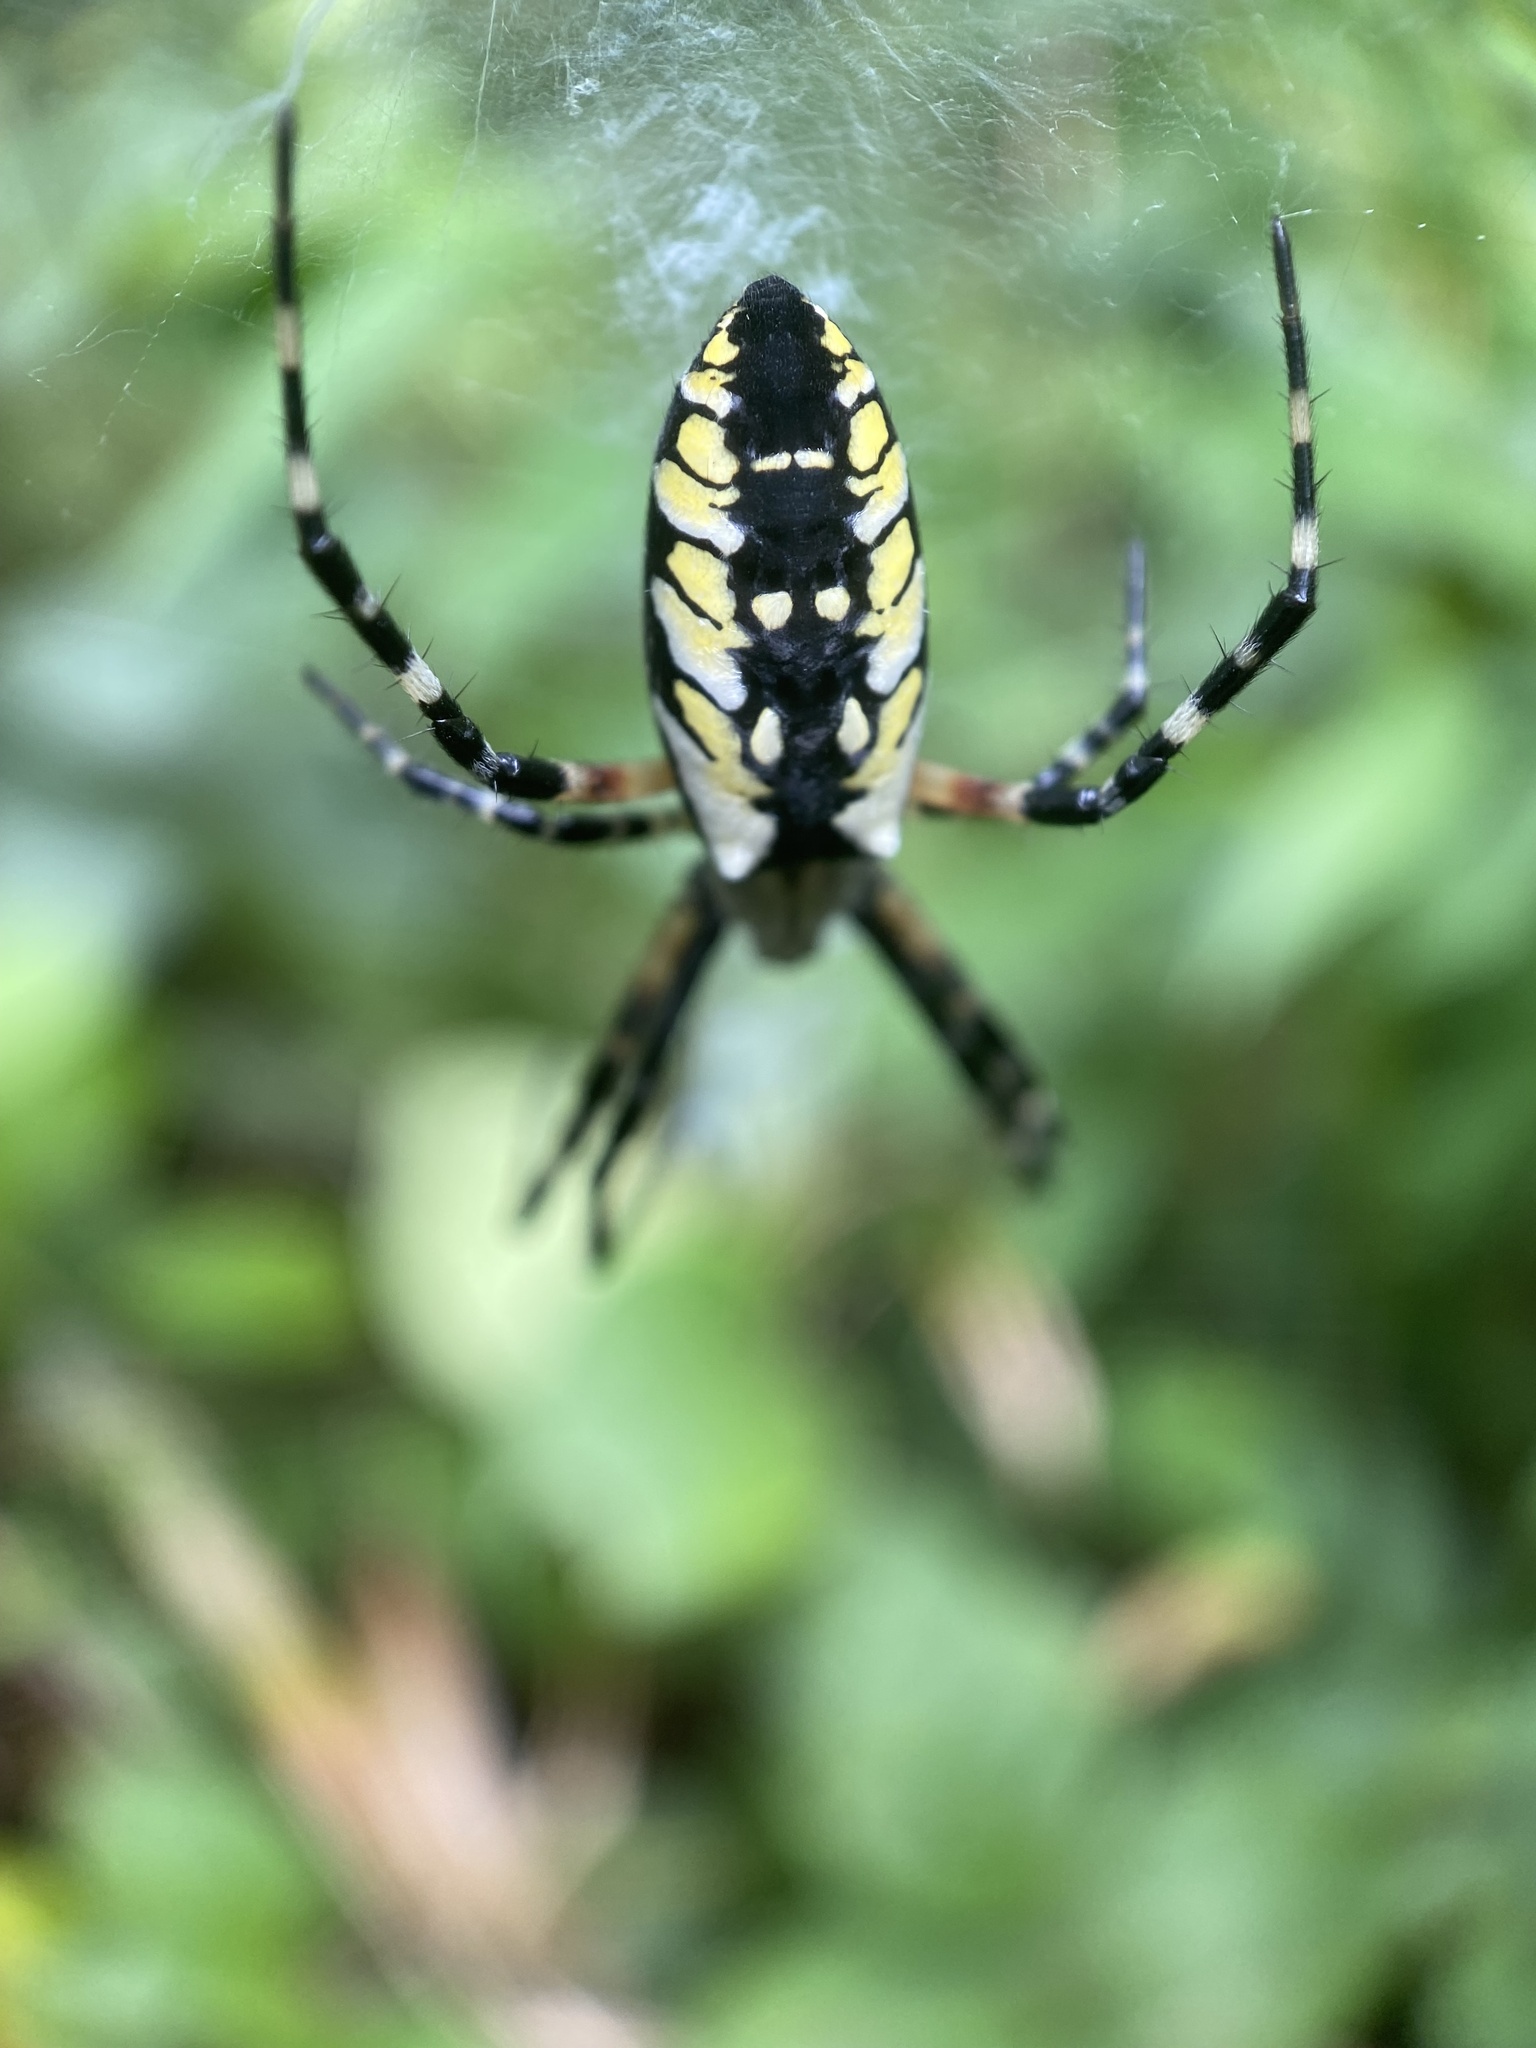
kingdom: Animalia
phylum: Arthropoda
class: Arachnida
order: Araneae
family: Araneidae
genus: Argiope
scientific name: Argiope aurantia
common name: Orb weavers
